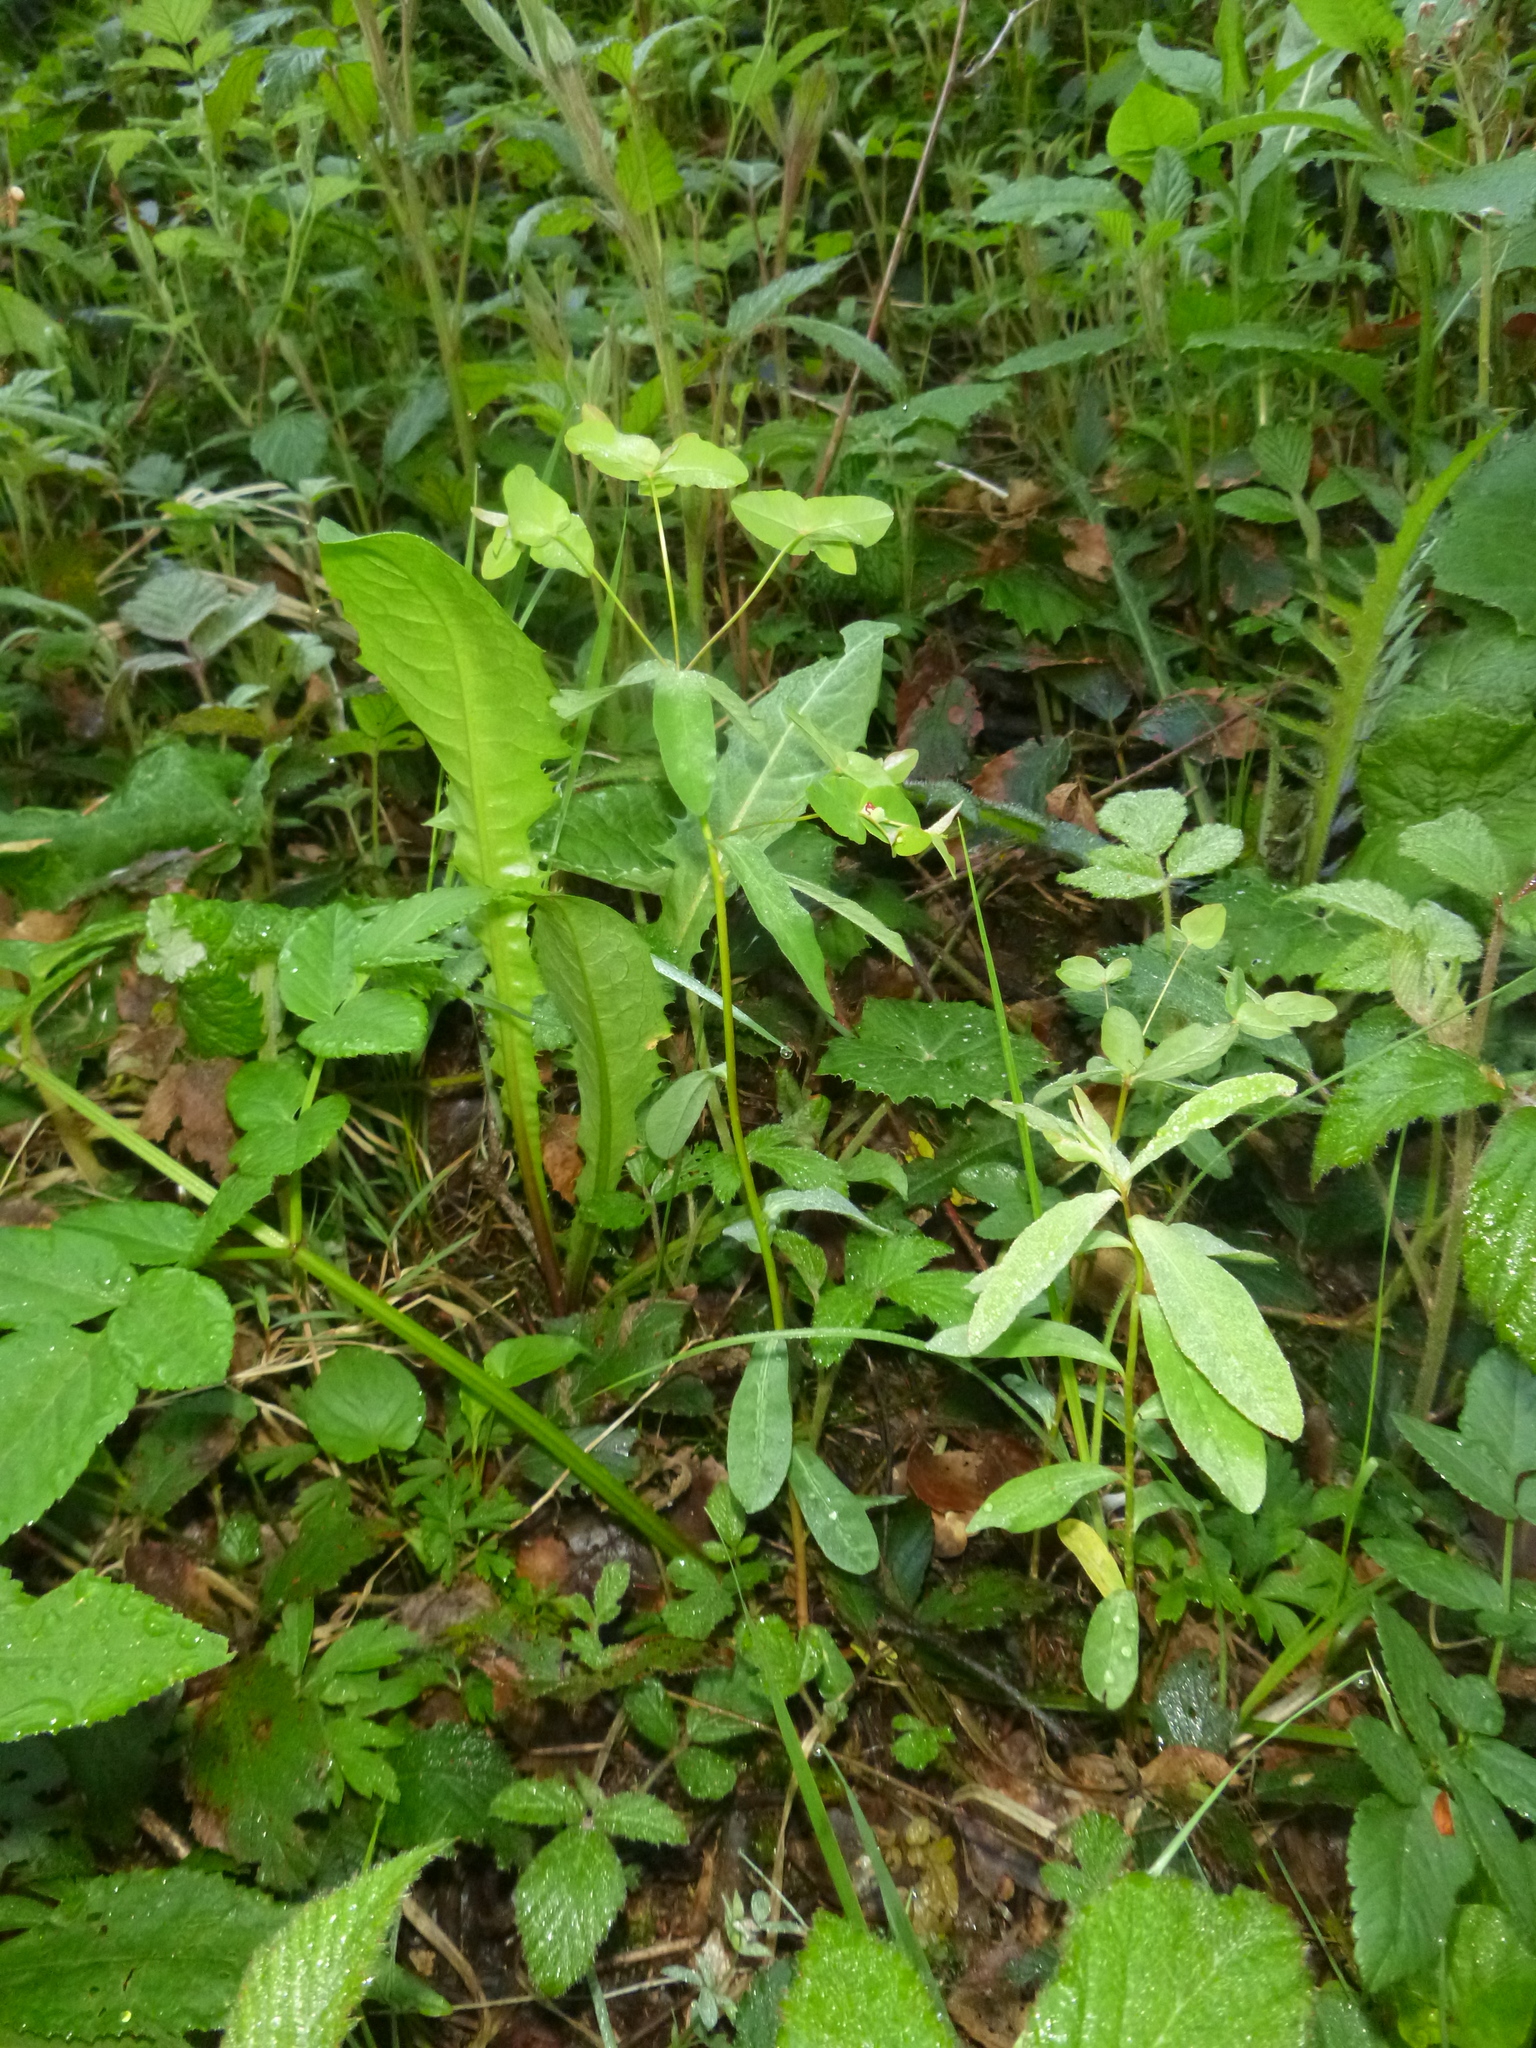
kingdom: Plantae
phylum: Tracheophyta
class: Magnoliopsida
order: Malpighiales
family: Euphorbiaceae
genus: Euphorbia
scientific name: Euphorbia dulcis
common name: Sweet spurge
